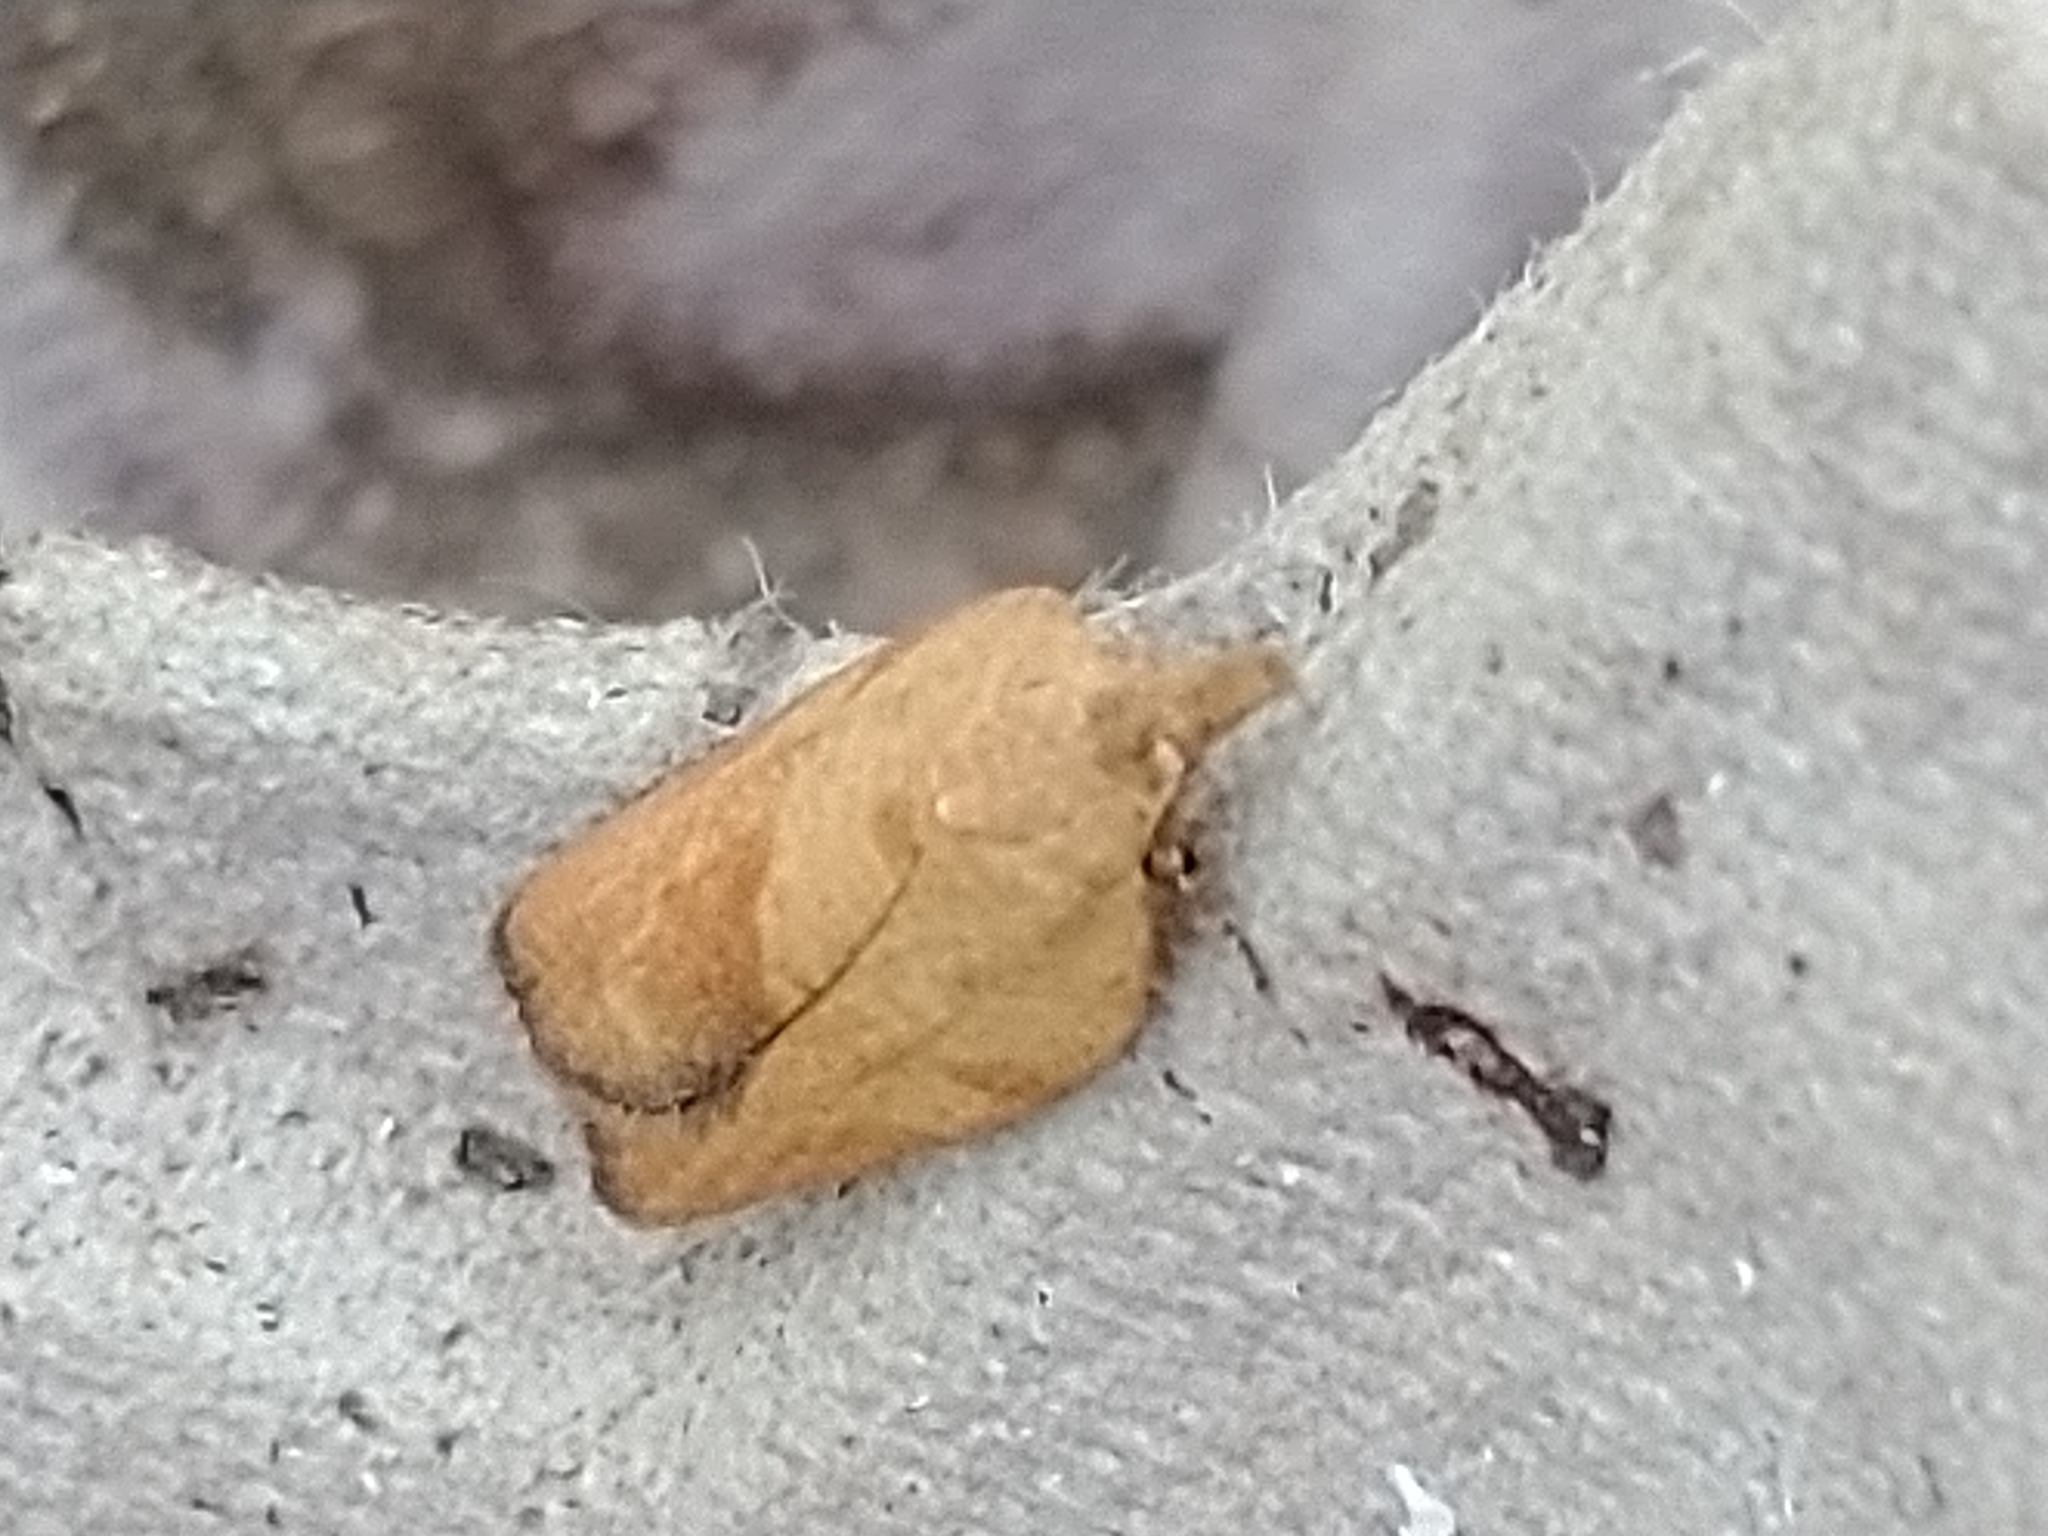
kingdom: Animalia
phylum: Arthropoda
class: Insecta
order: Lepidoptera
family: Tortricidae
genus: Epiphyas
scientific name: Epiphyas postvittana
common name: Light brown apple moth
